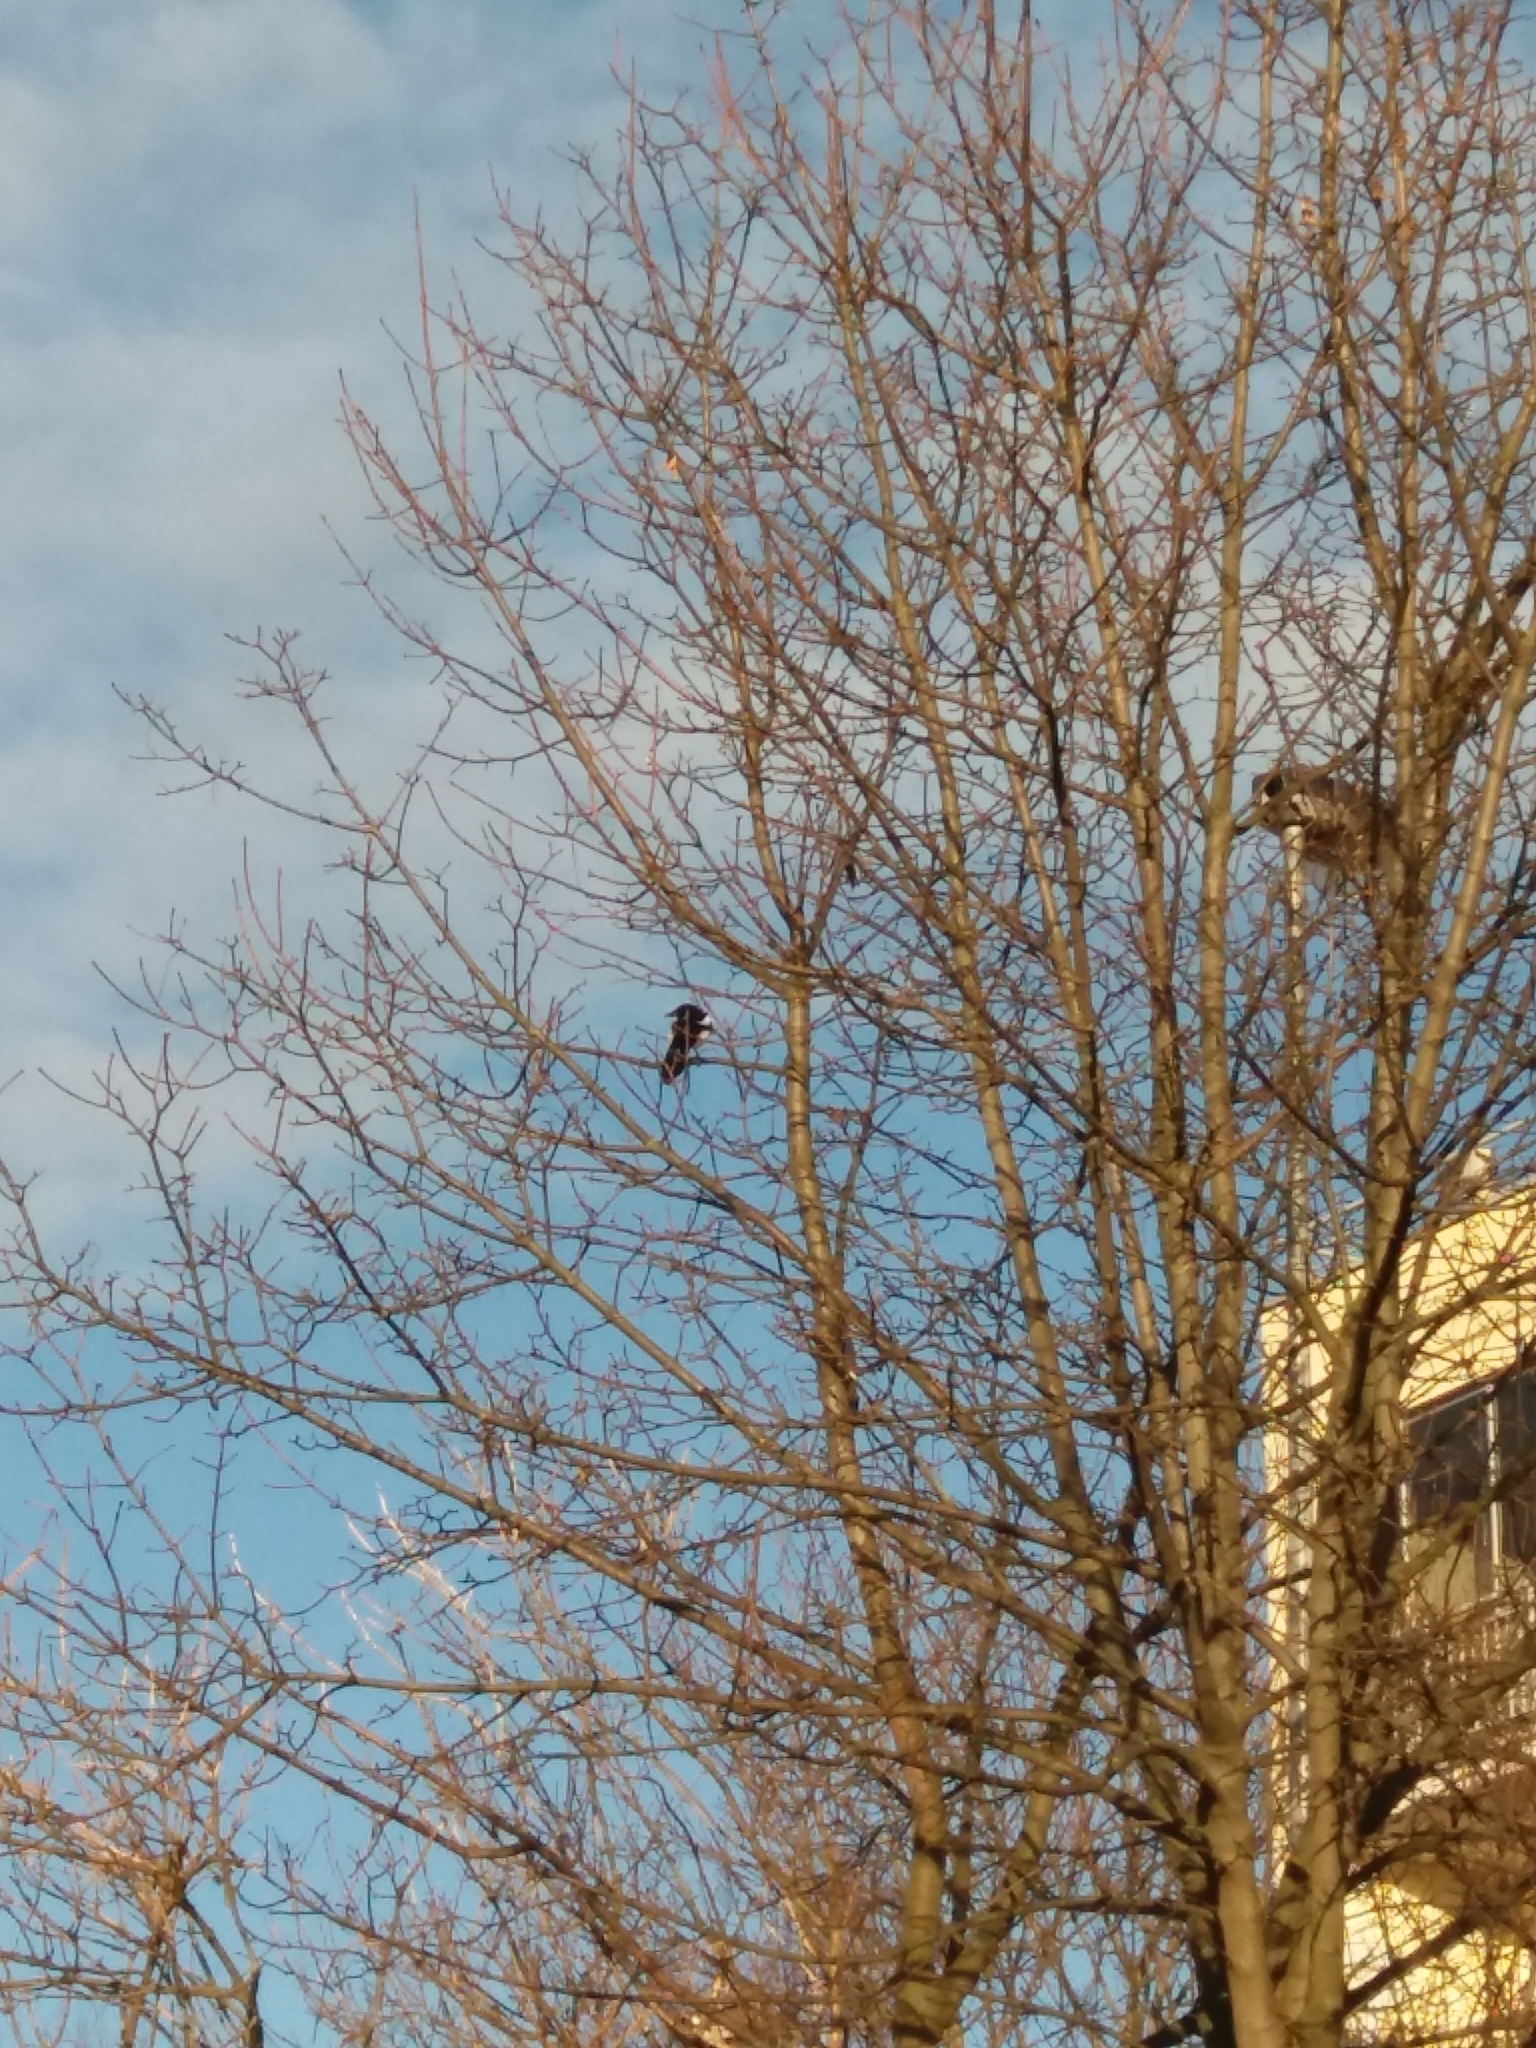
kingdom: Animalia
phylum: Chordata
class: Aves
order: Passeriformes
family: Corvidae
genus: Pica
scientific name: Pica pica
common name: Eurasian magpie
